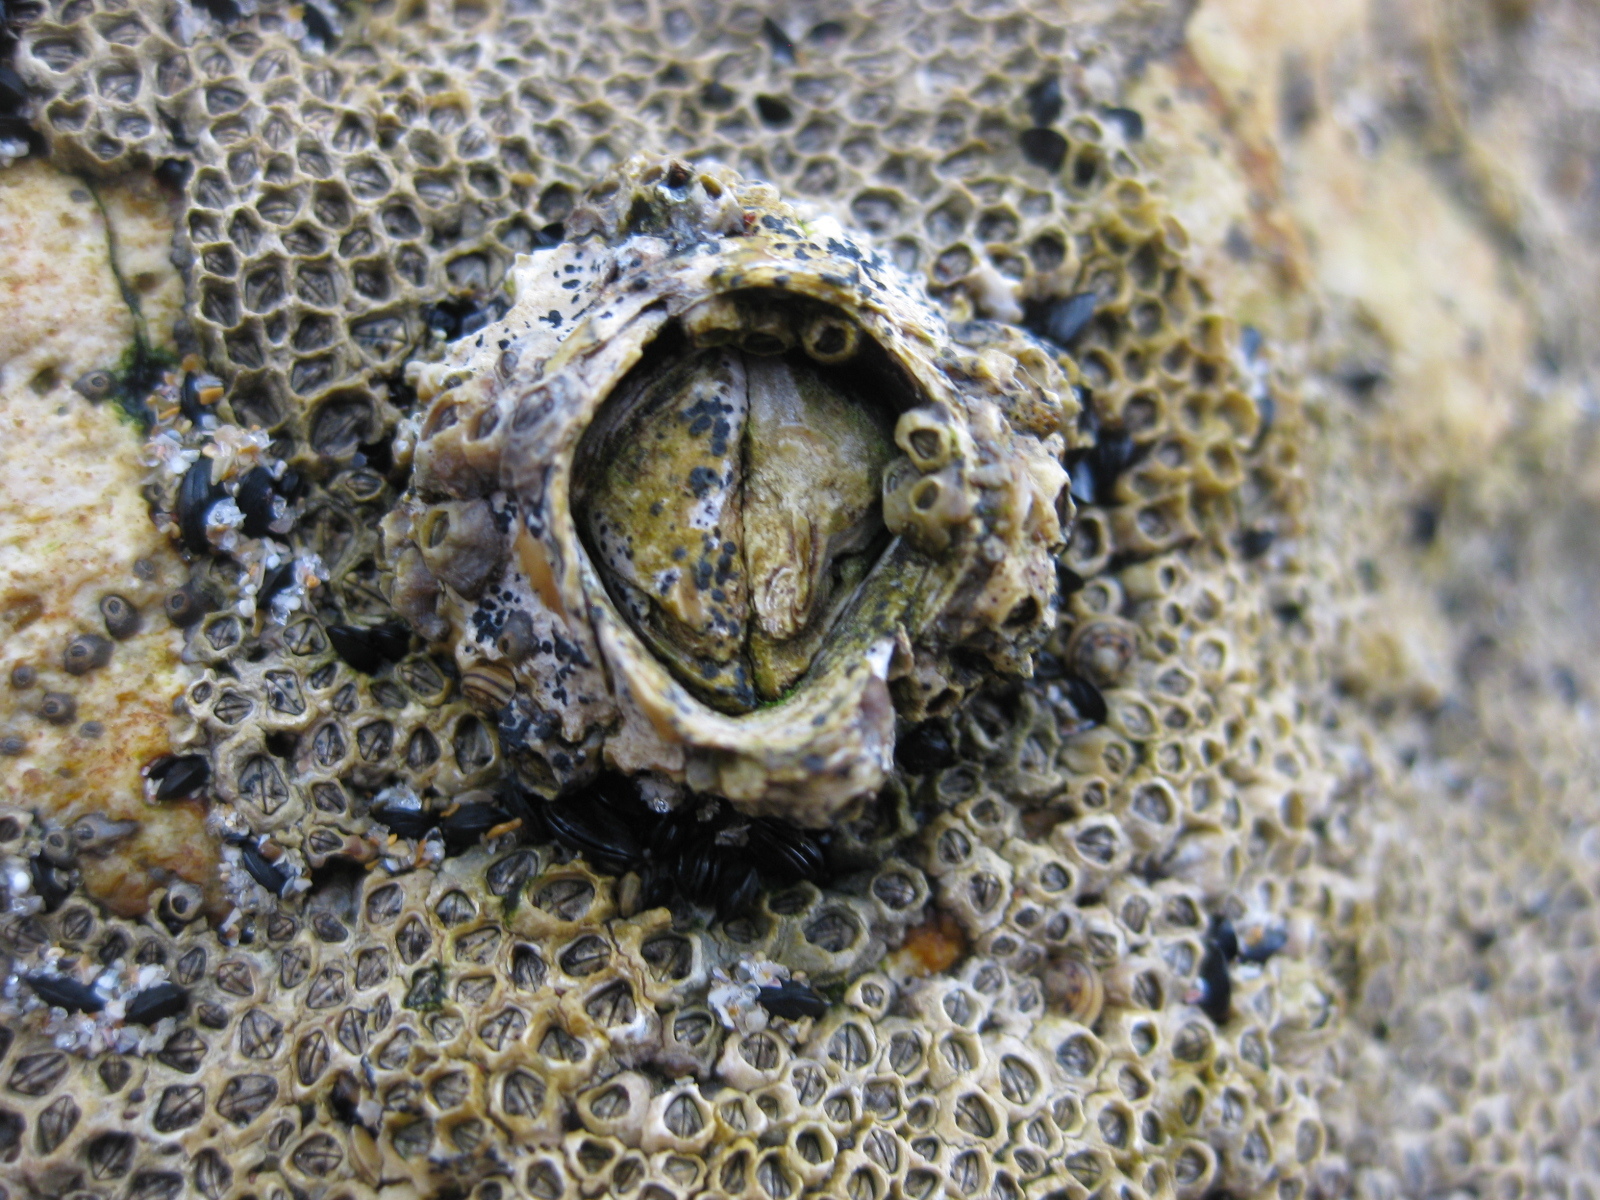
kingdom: Animalia
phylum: Arthropoda
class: Maxillopoda
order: Sessilia
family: Tetraclitidae
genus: Epopella
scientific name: Epopella plicata
